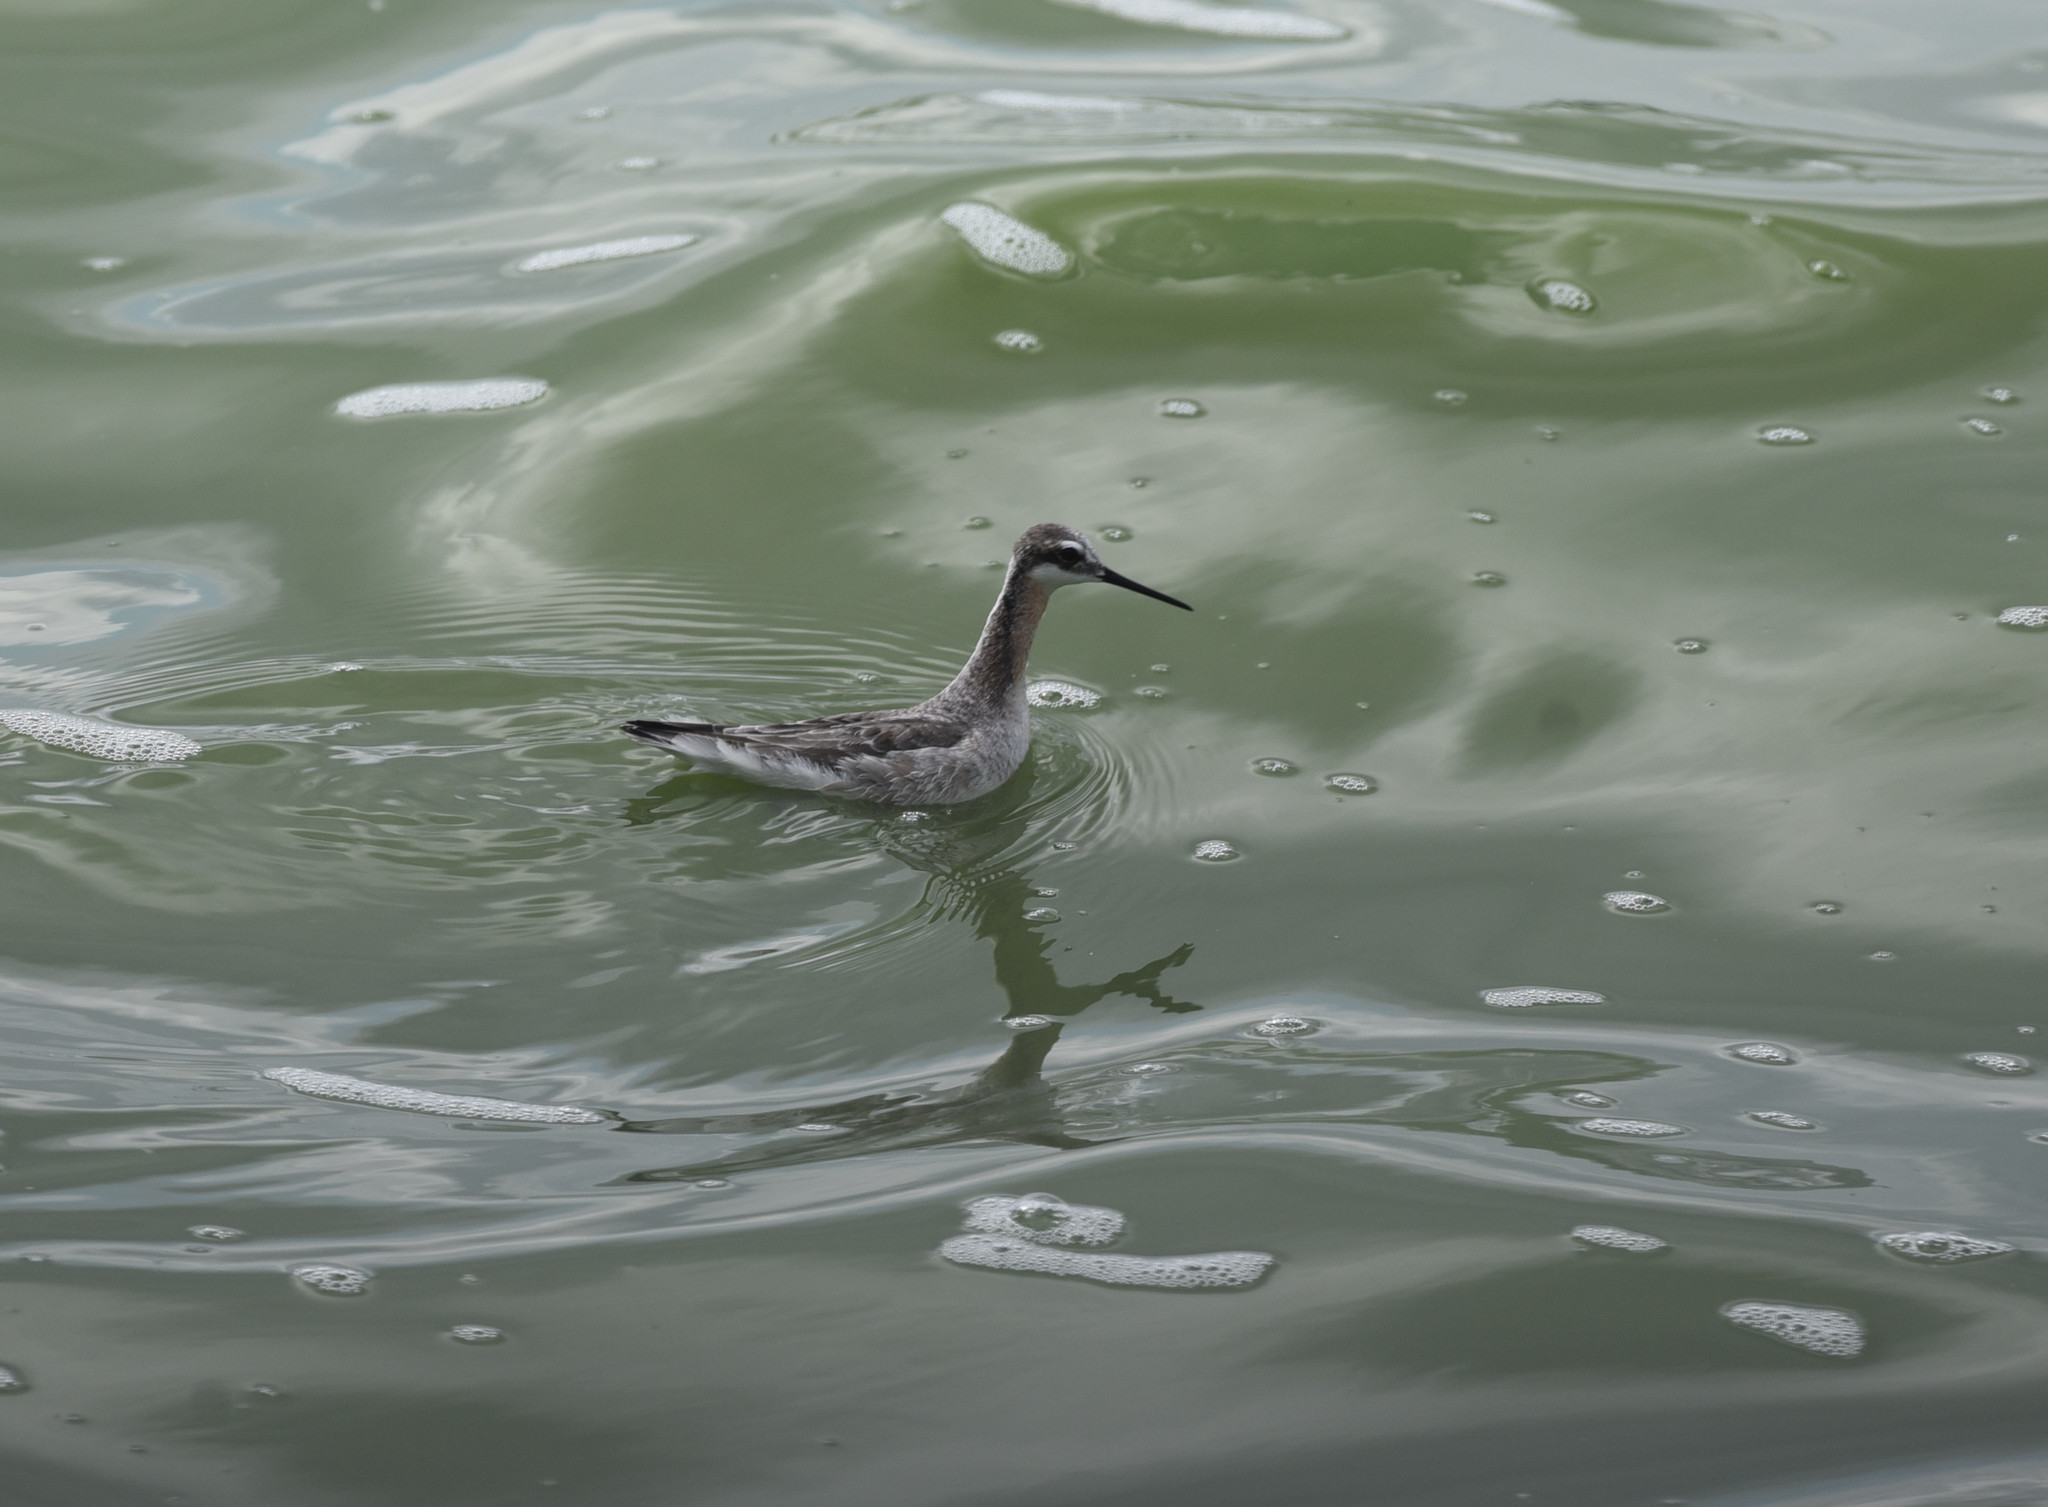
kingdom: Animalia
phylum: Chordata
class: Aves
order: Charadriiformes
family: Scolopacidae
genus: Phalaropus
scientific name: Phalaropus tricolor
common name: Wilson's phalarope
